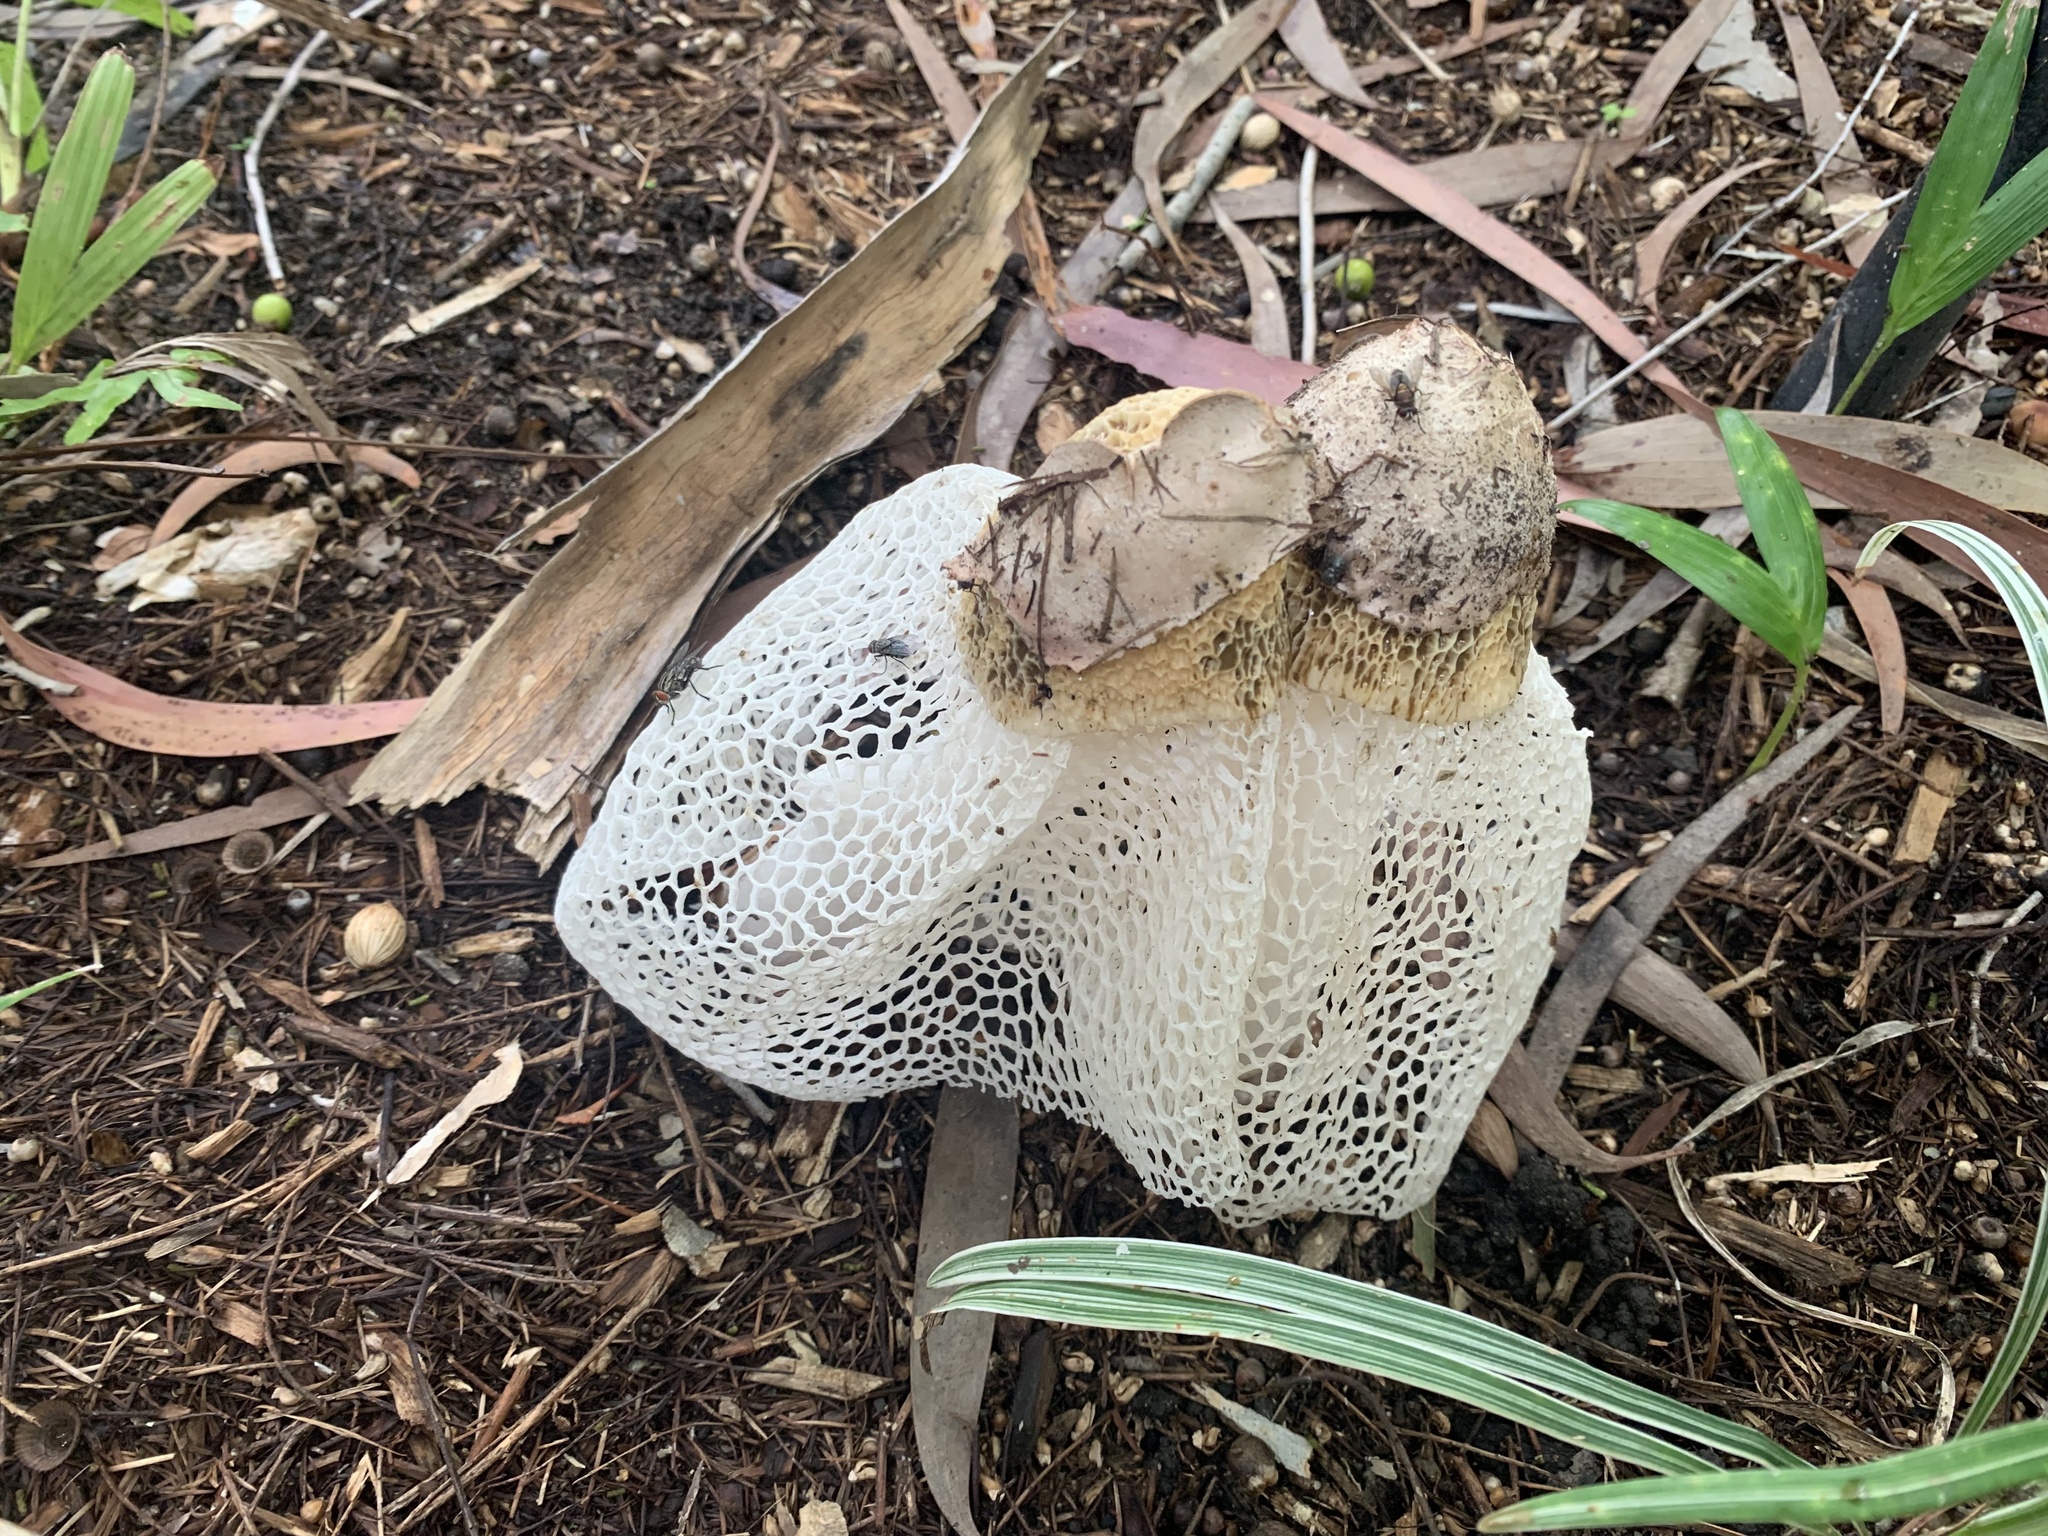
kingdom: Fungi
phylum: Basidiomycota
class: Agaricomycetes
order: Phallales
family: Phallaceae
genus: Phallus
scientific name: Phallus indusiatus
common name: Bridal veil stinkhorn
